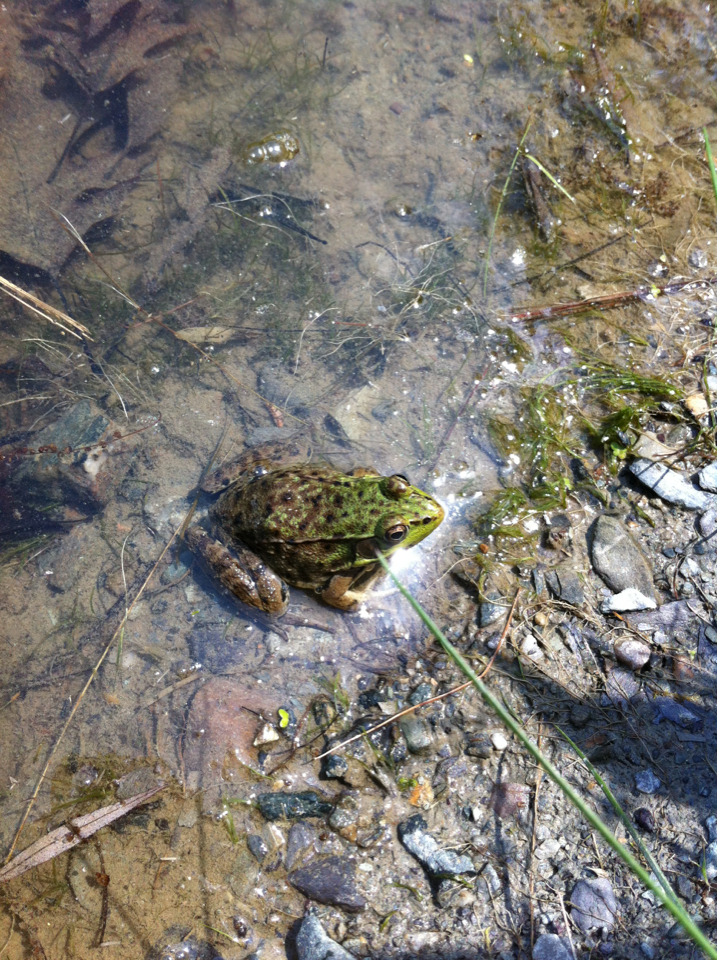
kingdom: Animalia
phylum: Chordata
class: Amphibia
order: Anura
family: Ranidae
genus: Lithobates
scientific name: Lithobates clamitans
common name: Green frog
